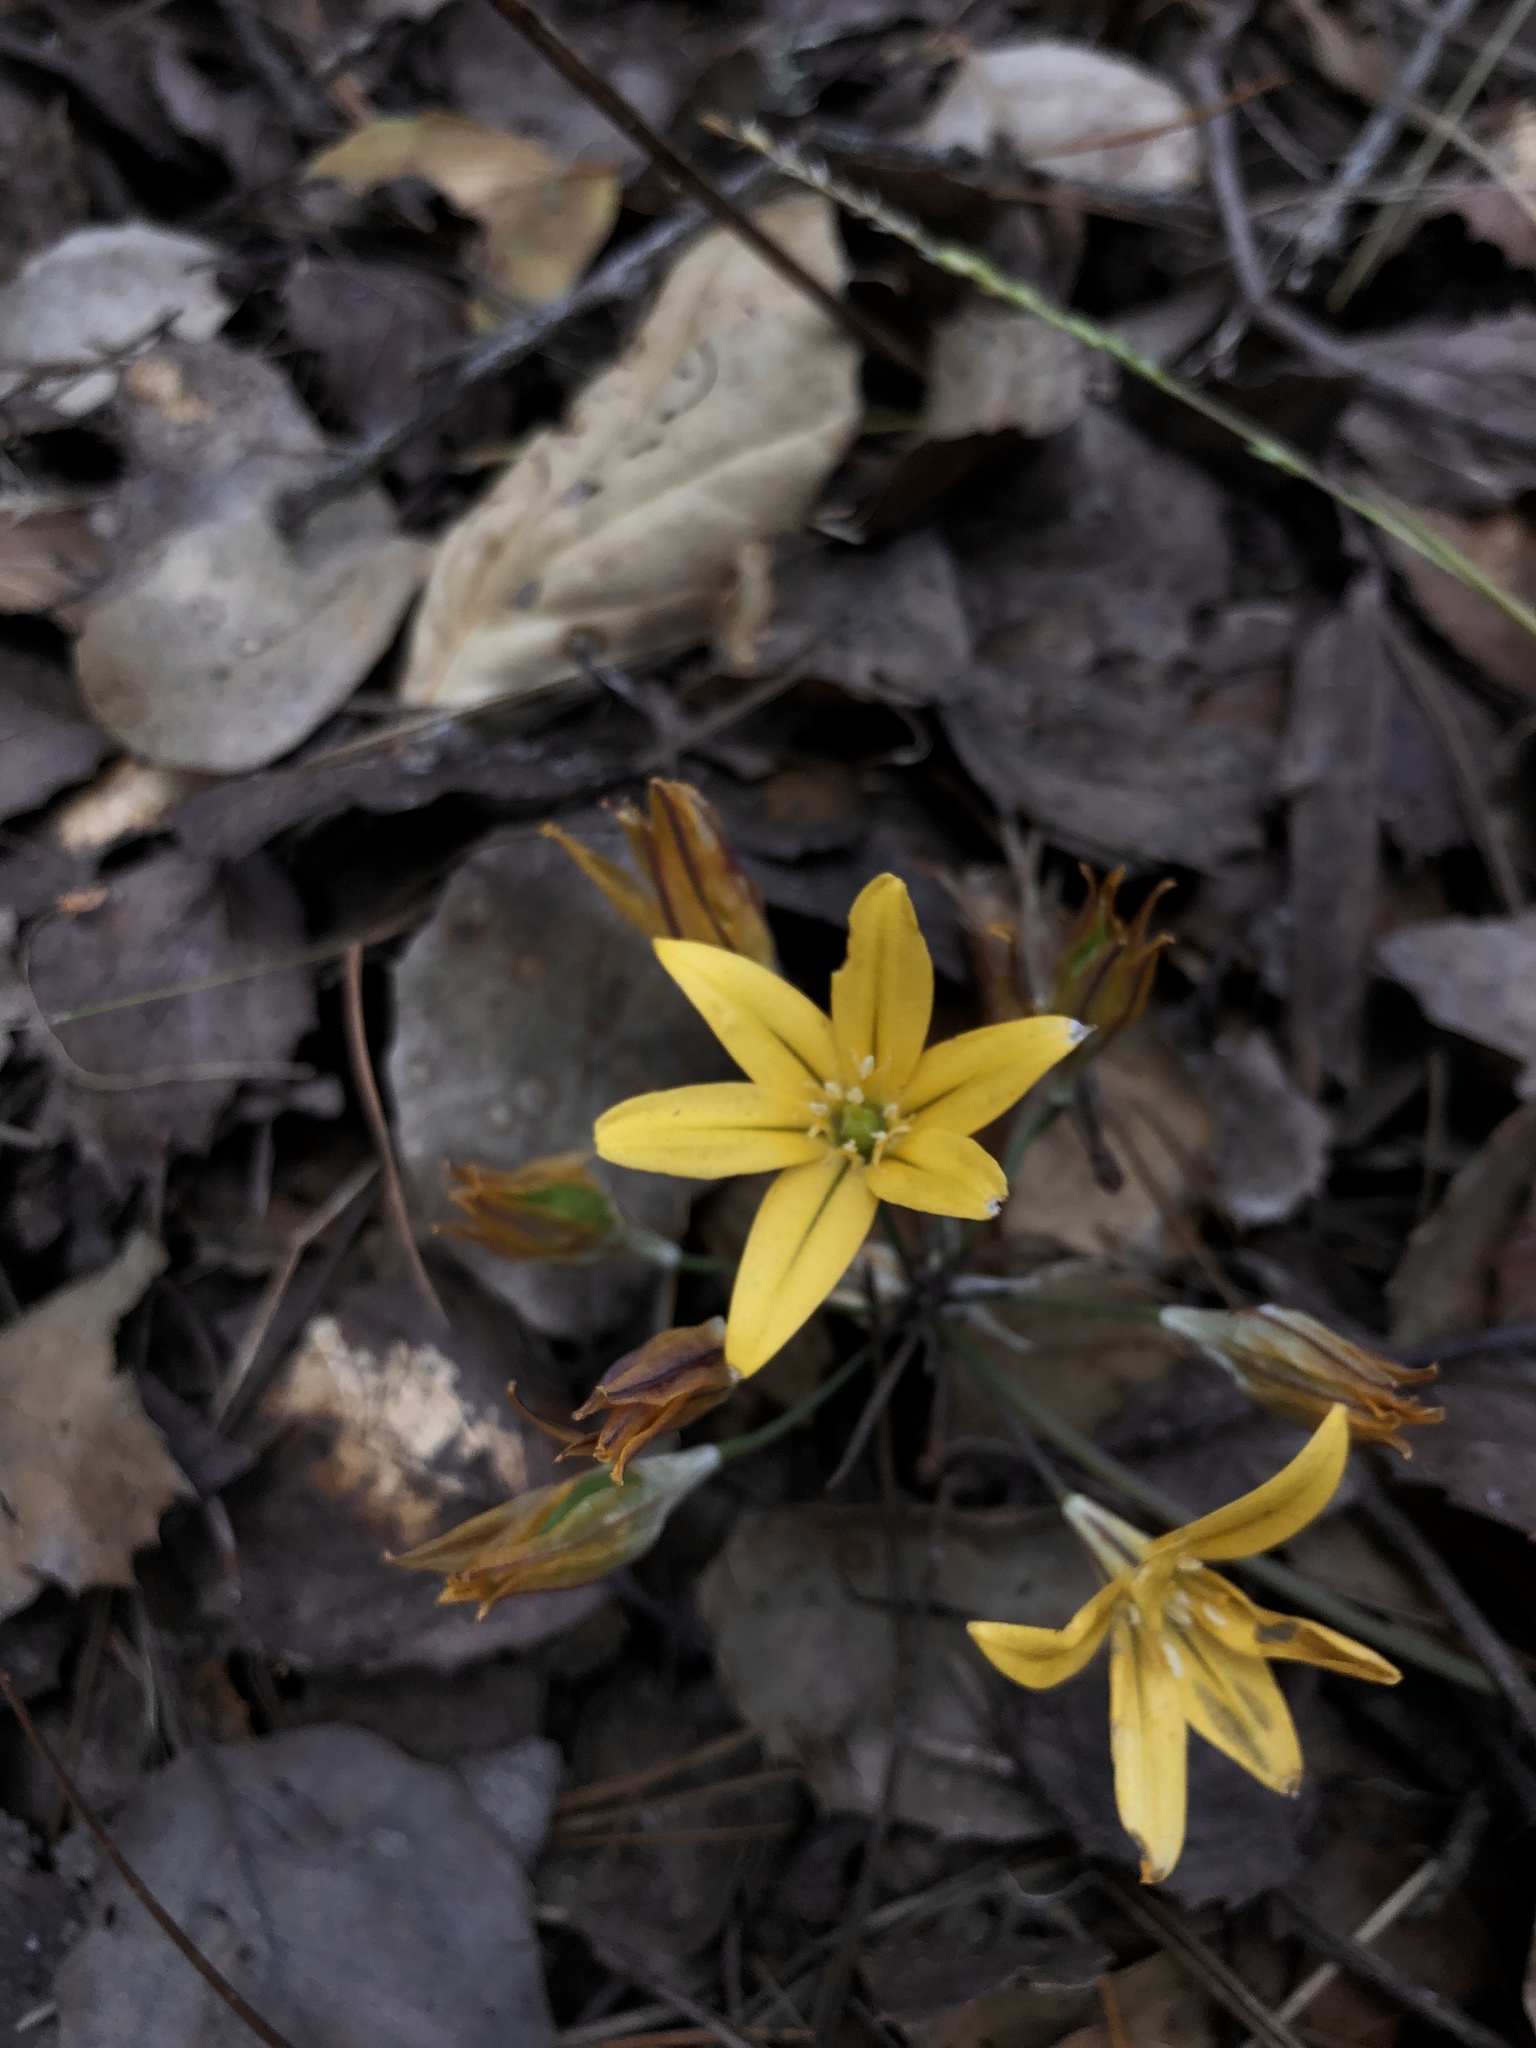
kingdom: Plantae
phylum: Tracheophyta
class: Liliopsida
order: Asparagales
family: Asparagaceae
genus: Triteleia
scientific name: Triteleia ixioides
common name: Yellow-brodiaea
